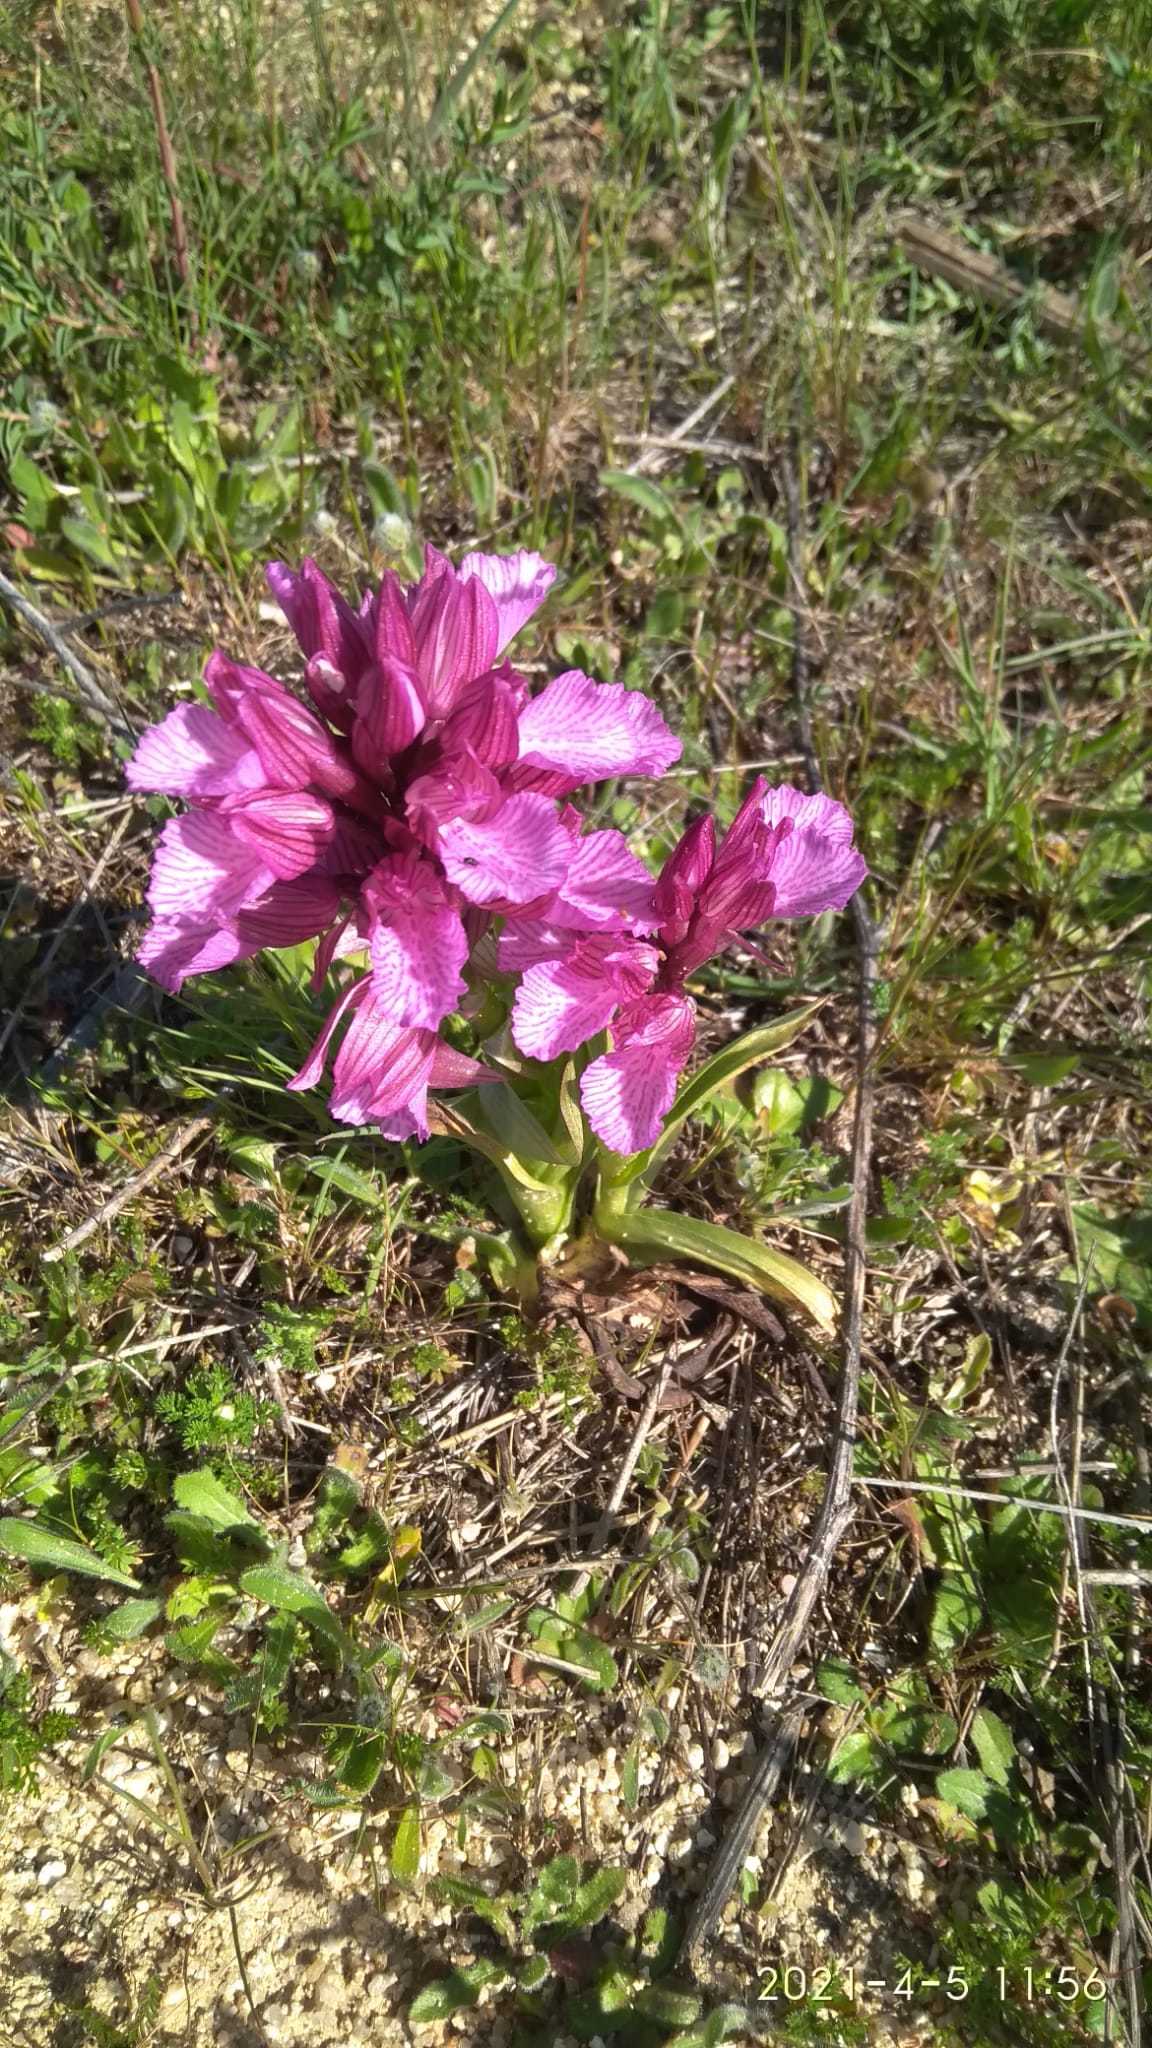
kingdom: Plantae
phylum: Tracheophyta
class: Liliopsida
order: Asparagales
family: Orchidaceae
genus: Anacamptis
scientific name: Anacamptis papilionacea
